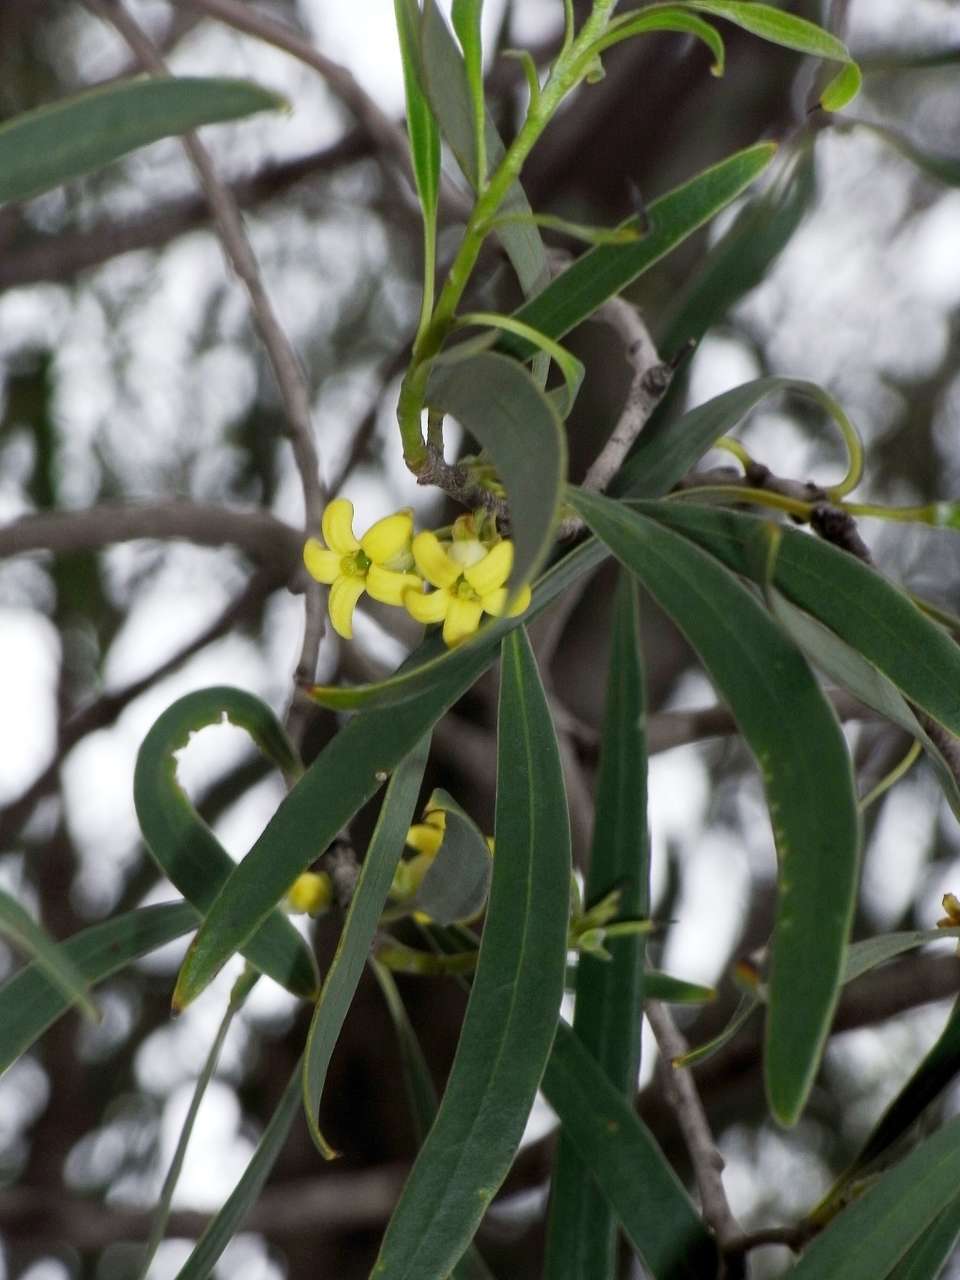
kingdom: Plantae
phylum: Tracheophyta
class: Magnoliopsida
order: Apiales
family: Pittosporaceae
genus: Pittosporum
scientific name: Pittosporum angustifolium
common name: Weeping pittosporum
